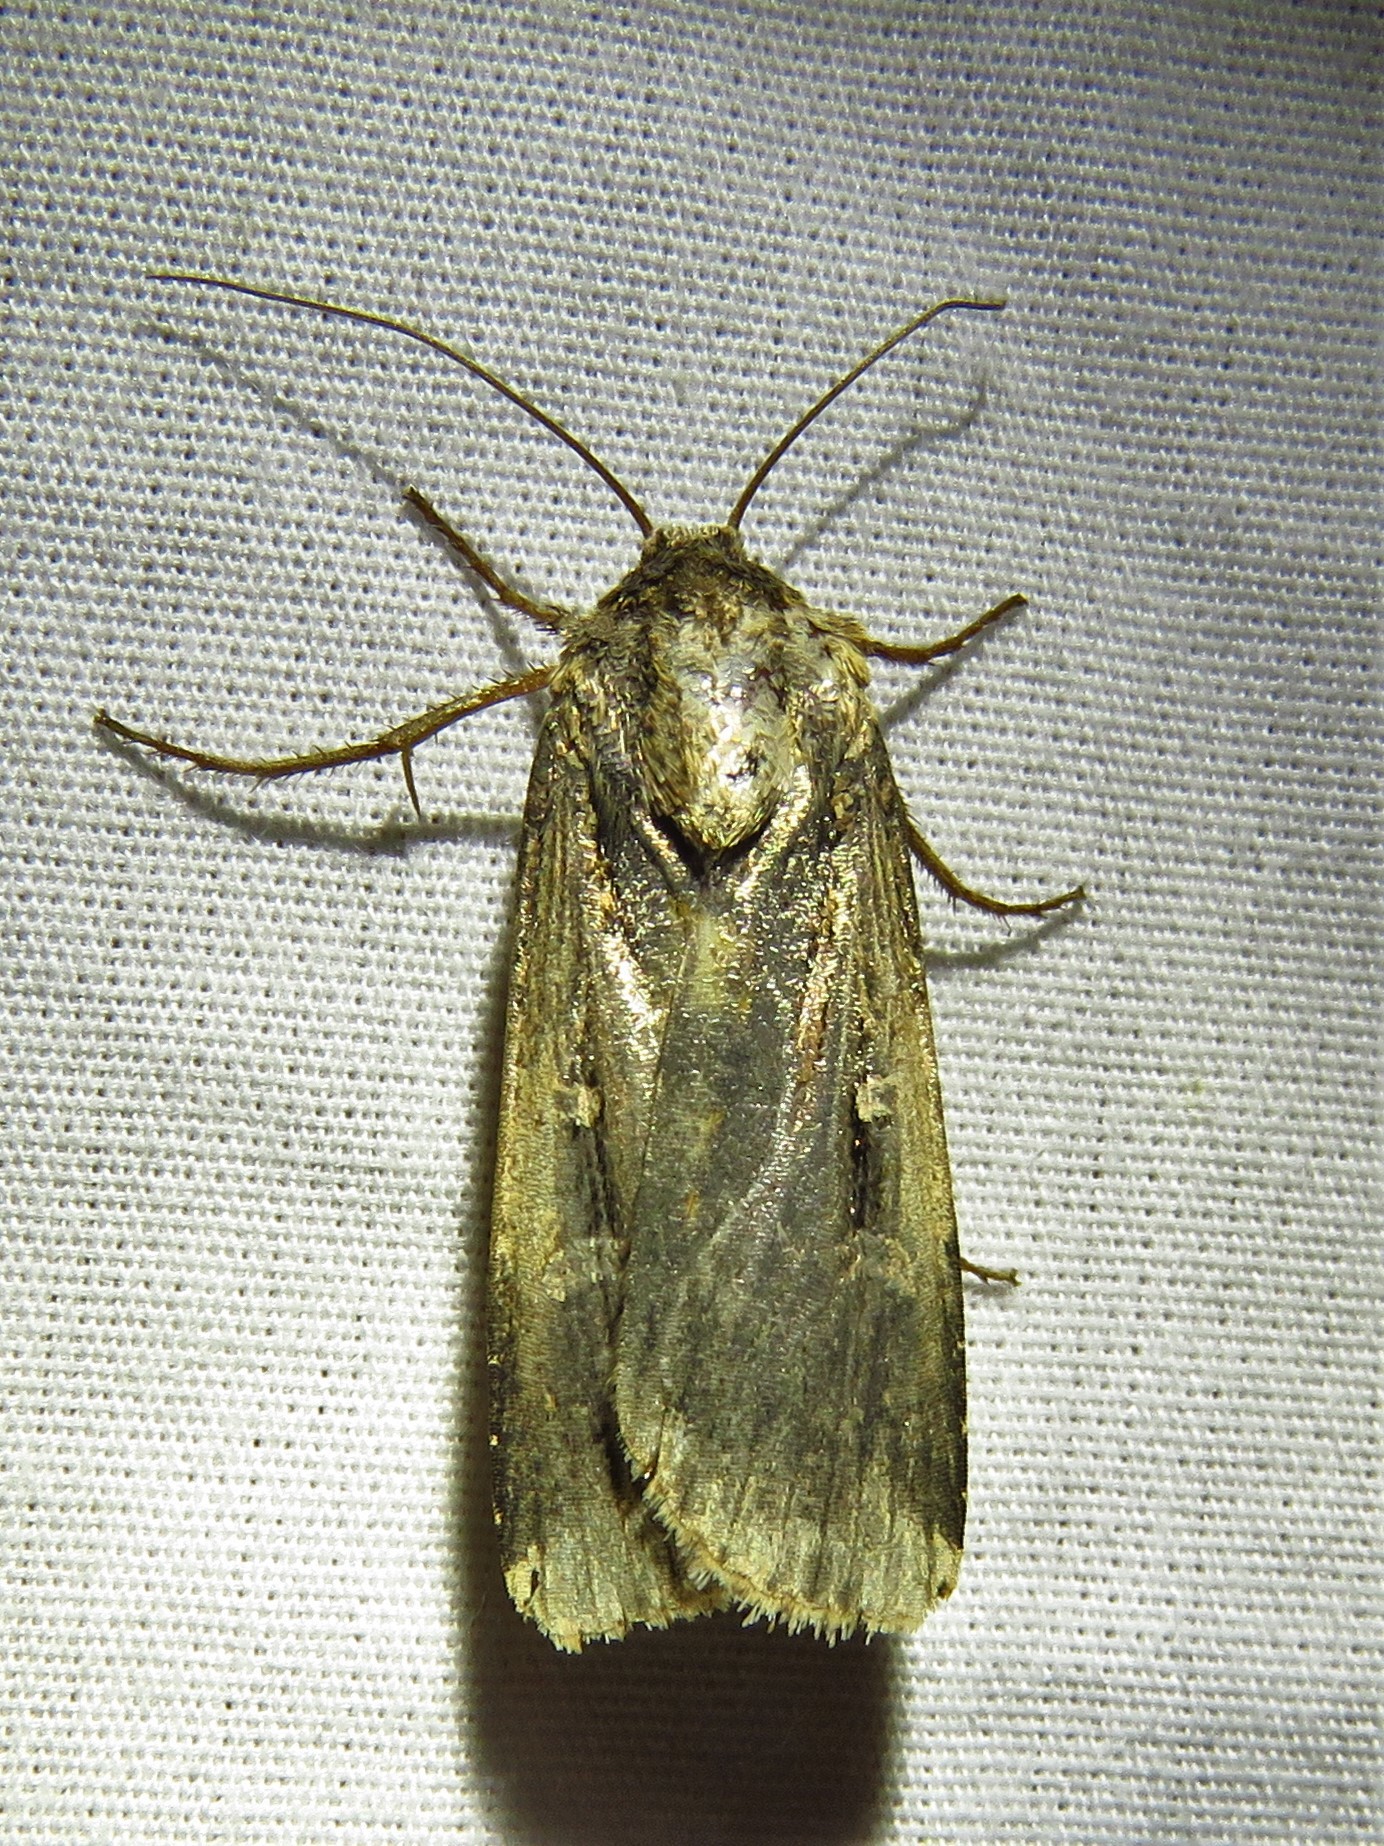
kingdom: Animalia
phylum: Arthropoda
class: Insecta
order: Lepidoptera
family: Noctuidae
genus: Feltia
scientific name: Feltia subterranea
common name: Granulate cutworm
